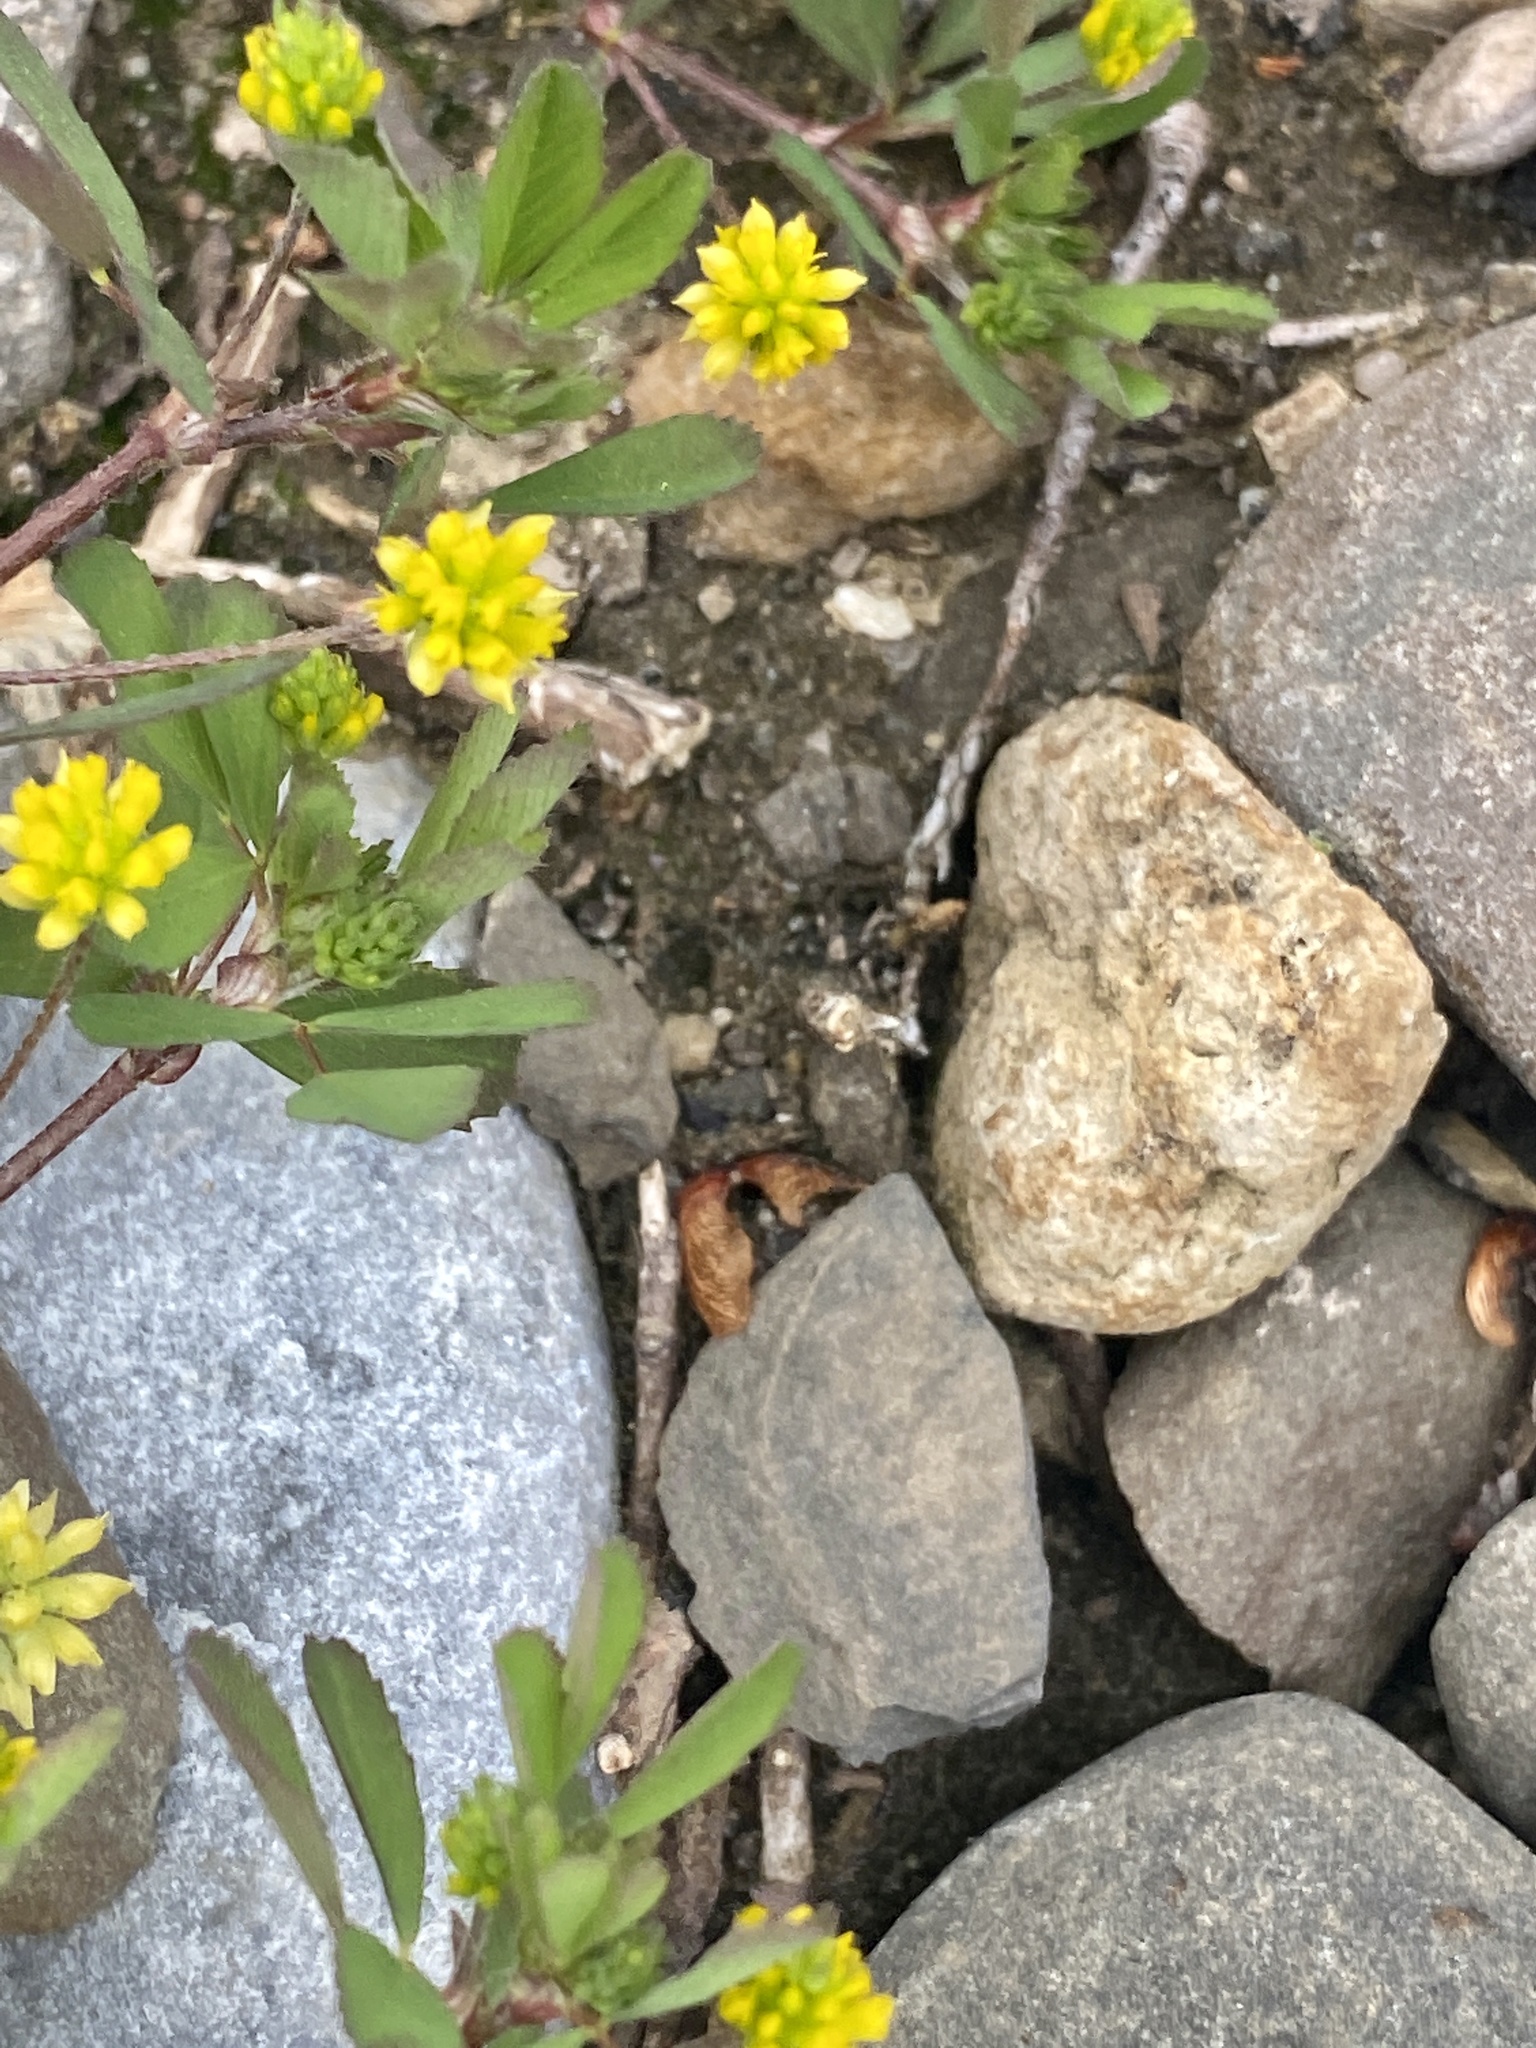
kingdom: Plantae
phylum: Tracheophyta
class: Magnoliopsida
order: Fabales
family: Fabaceae
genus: Trifolium
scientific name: Trifolium dubium
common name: Suckling clover
